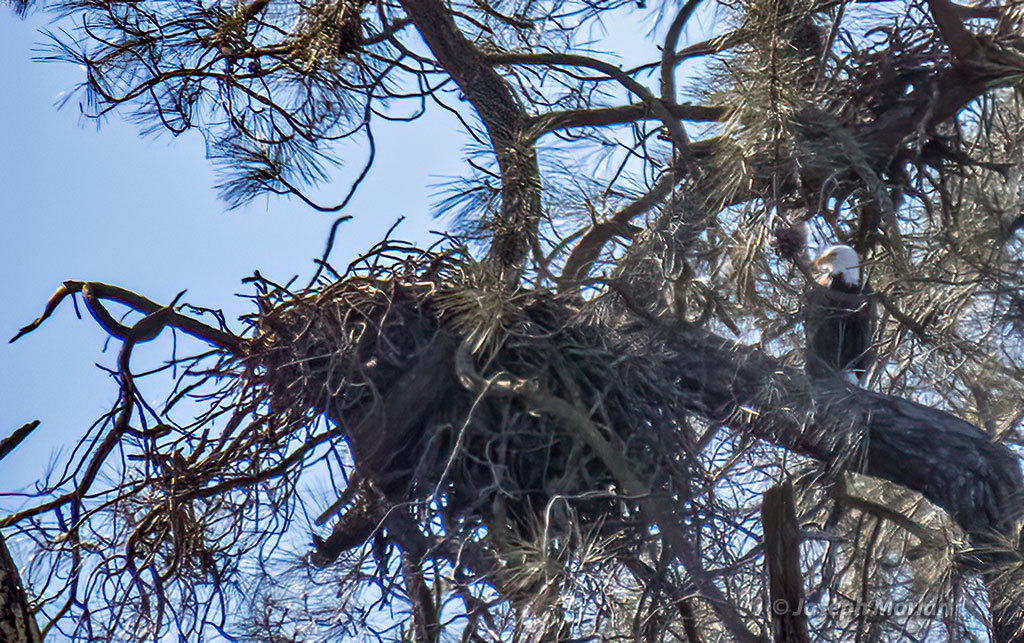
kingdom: Animalia
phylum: Chordata
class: Aves
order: Accipitriformes
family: Accipitridae
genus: Haliaeetus
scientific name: Haliaeetus leucocephalus
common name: Bald eagle
